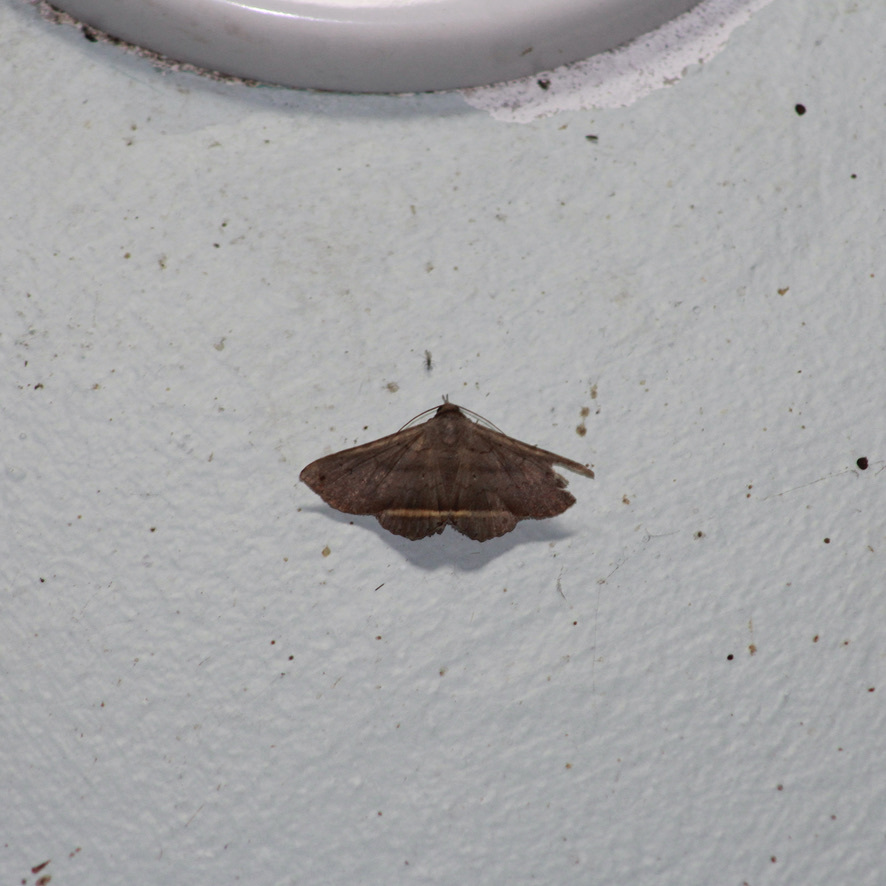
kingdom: Animalia
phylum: Arthropoda
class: Insecta
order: Lepidoptera
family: Erebidae
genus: Lesmone
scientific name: Lesmone formularis
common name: Lesmone moth
